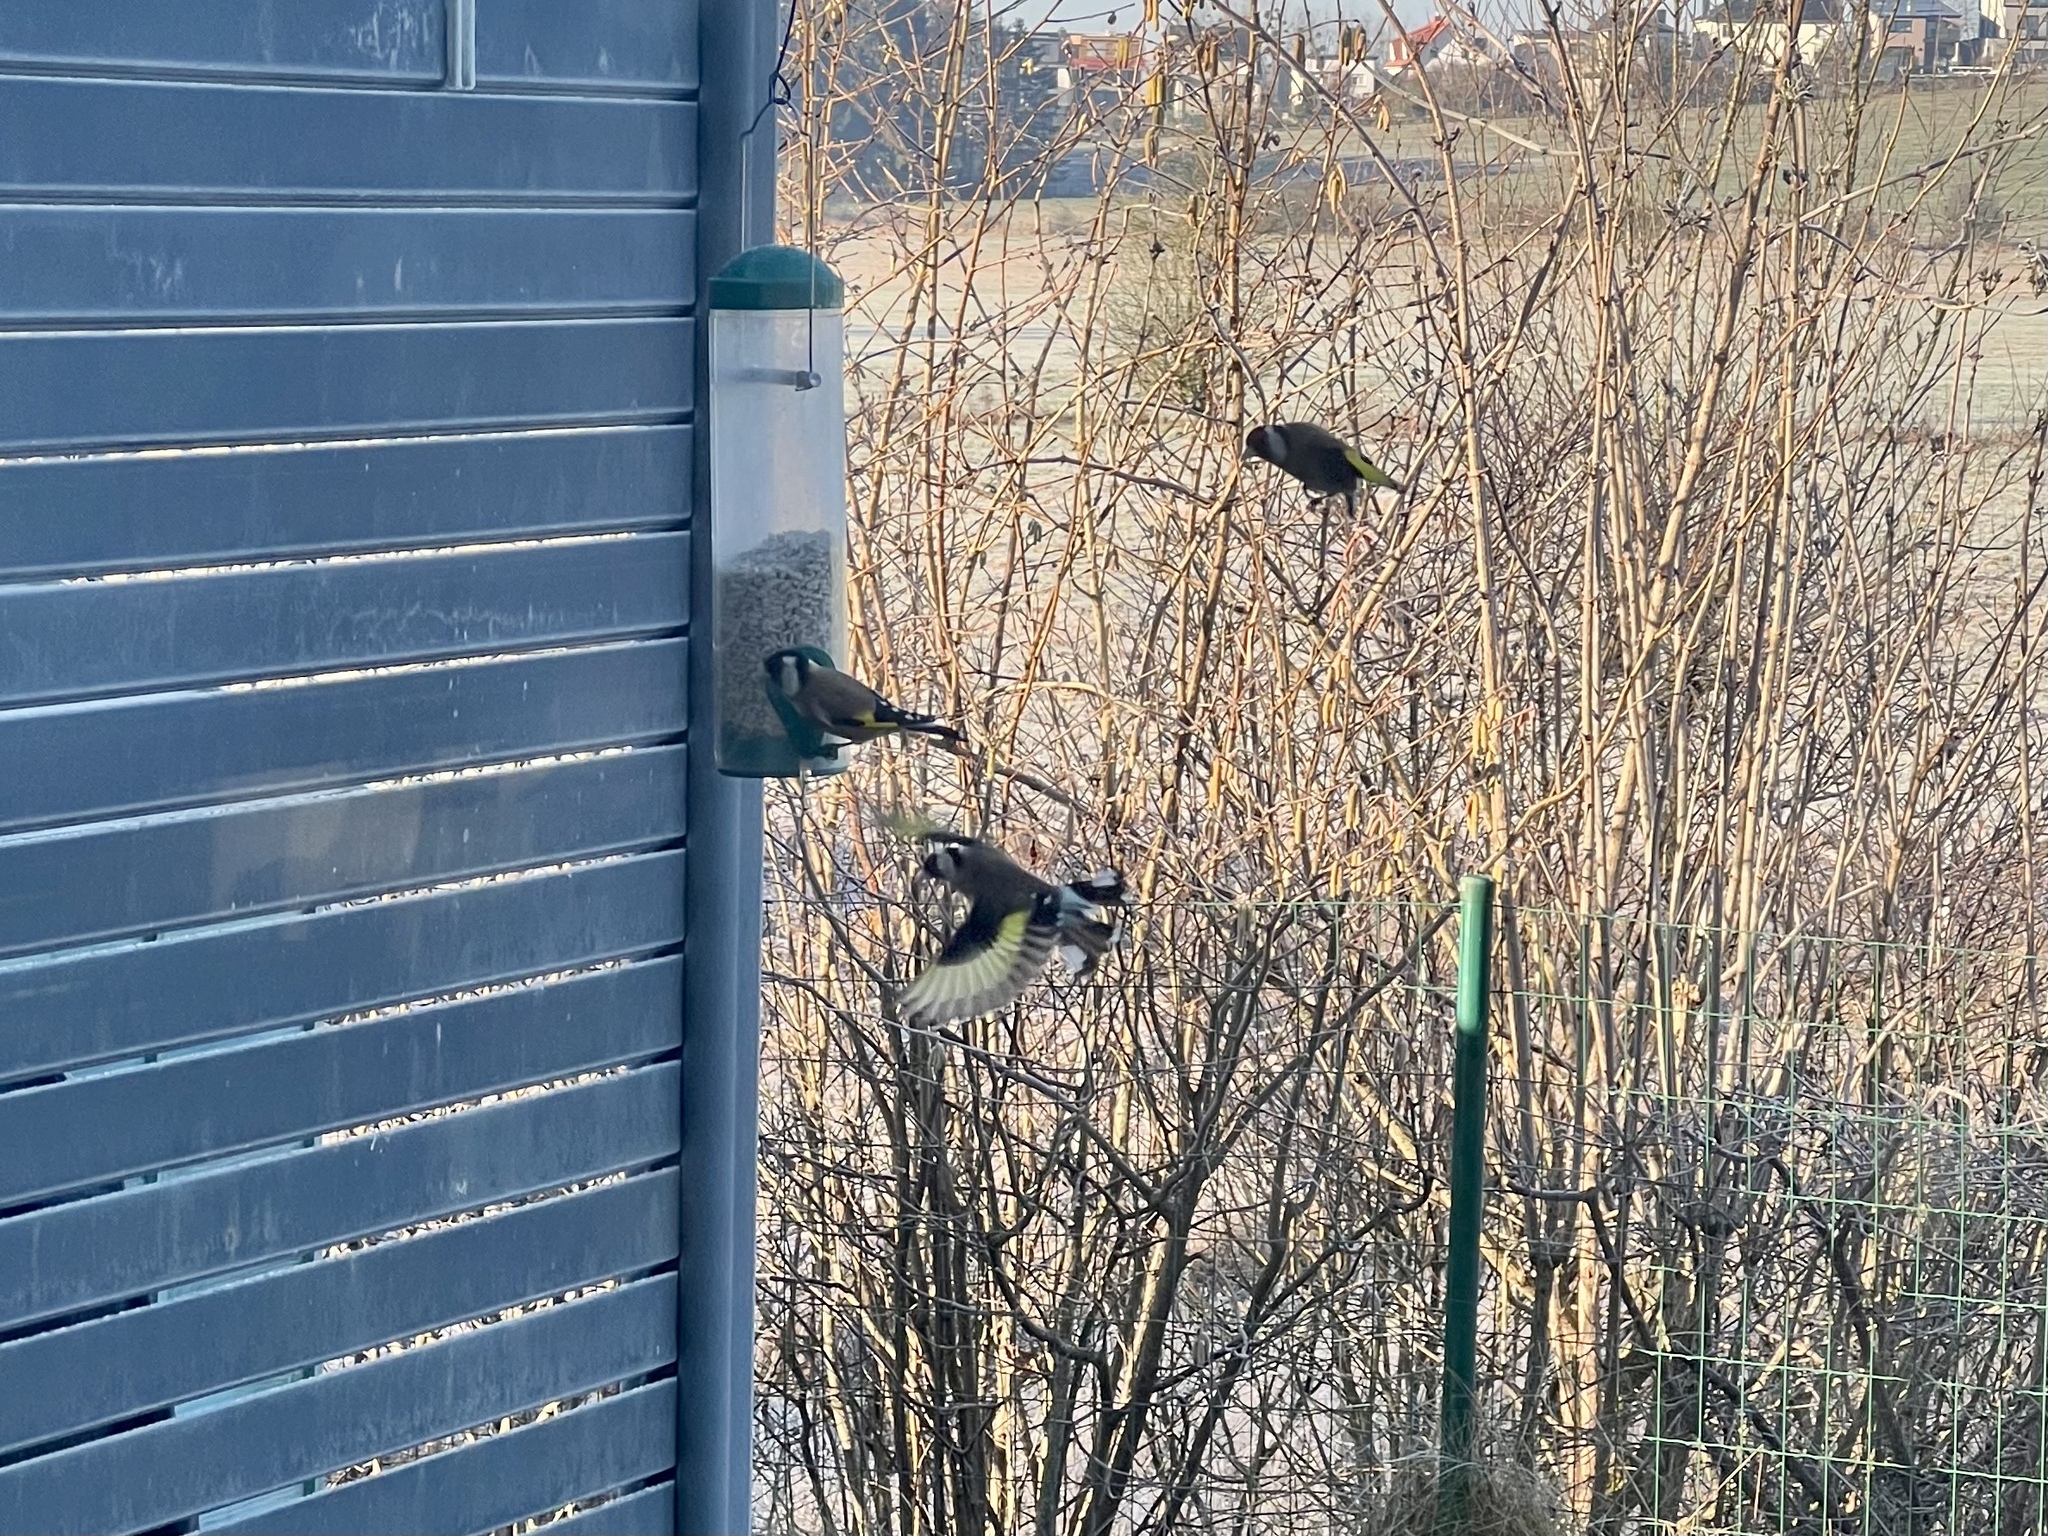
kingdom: Animalia
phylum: Chordata
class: Aves
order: Passeriformes
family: Fringillidae
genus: Carduelis
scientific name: Carduelis carduelis
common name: European goldfinch
